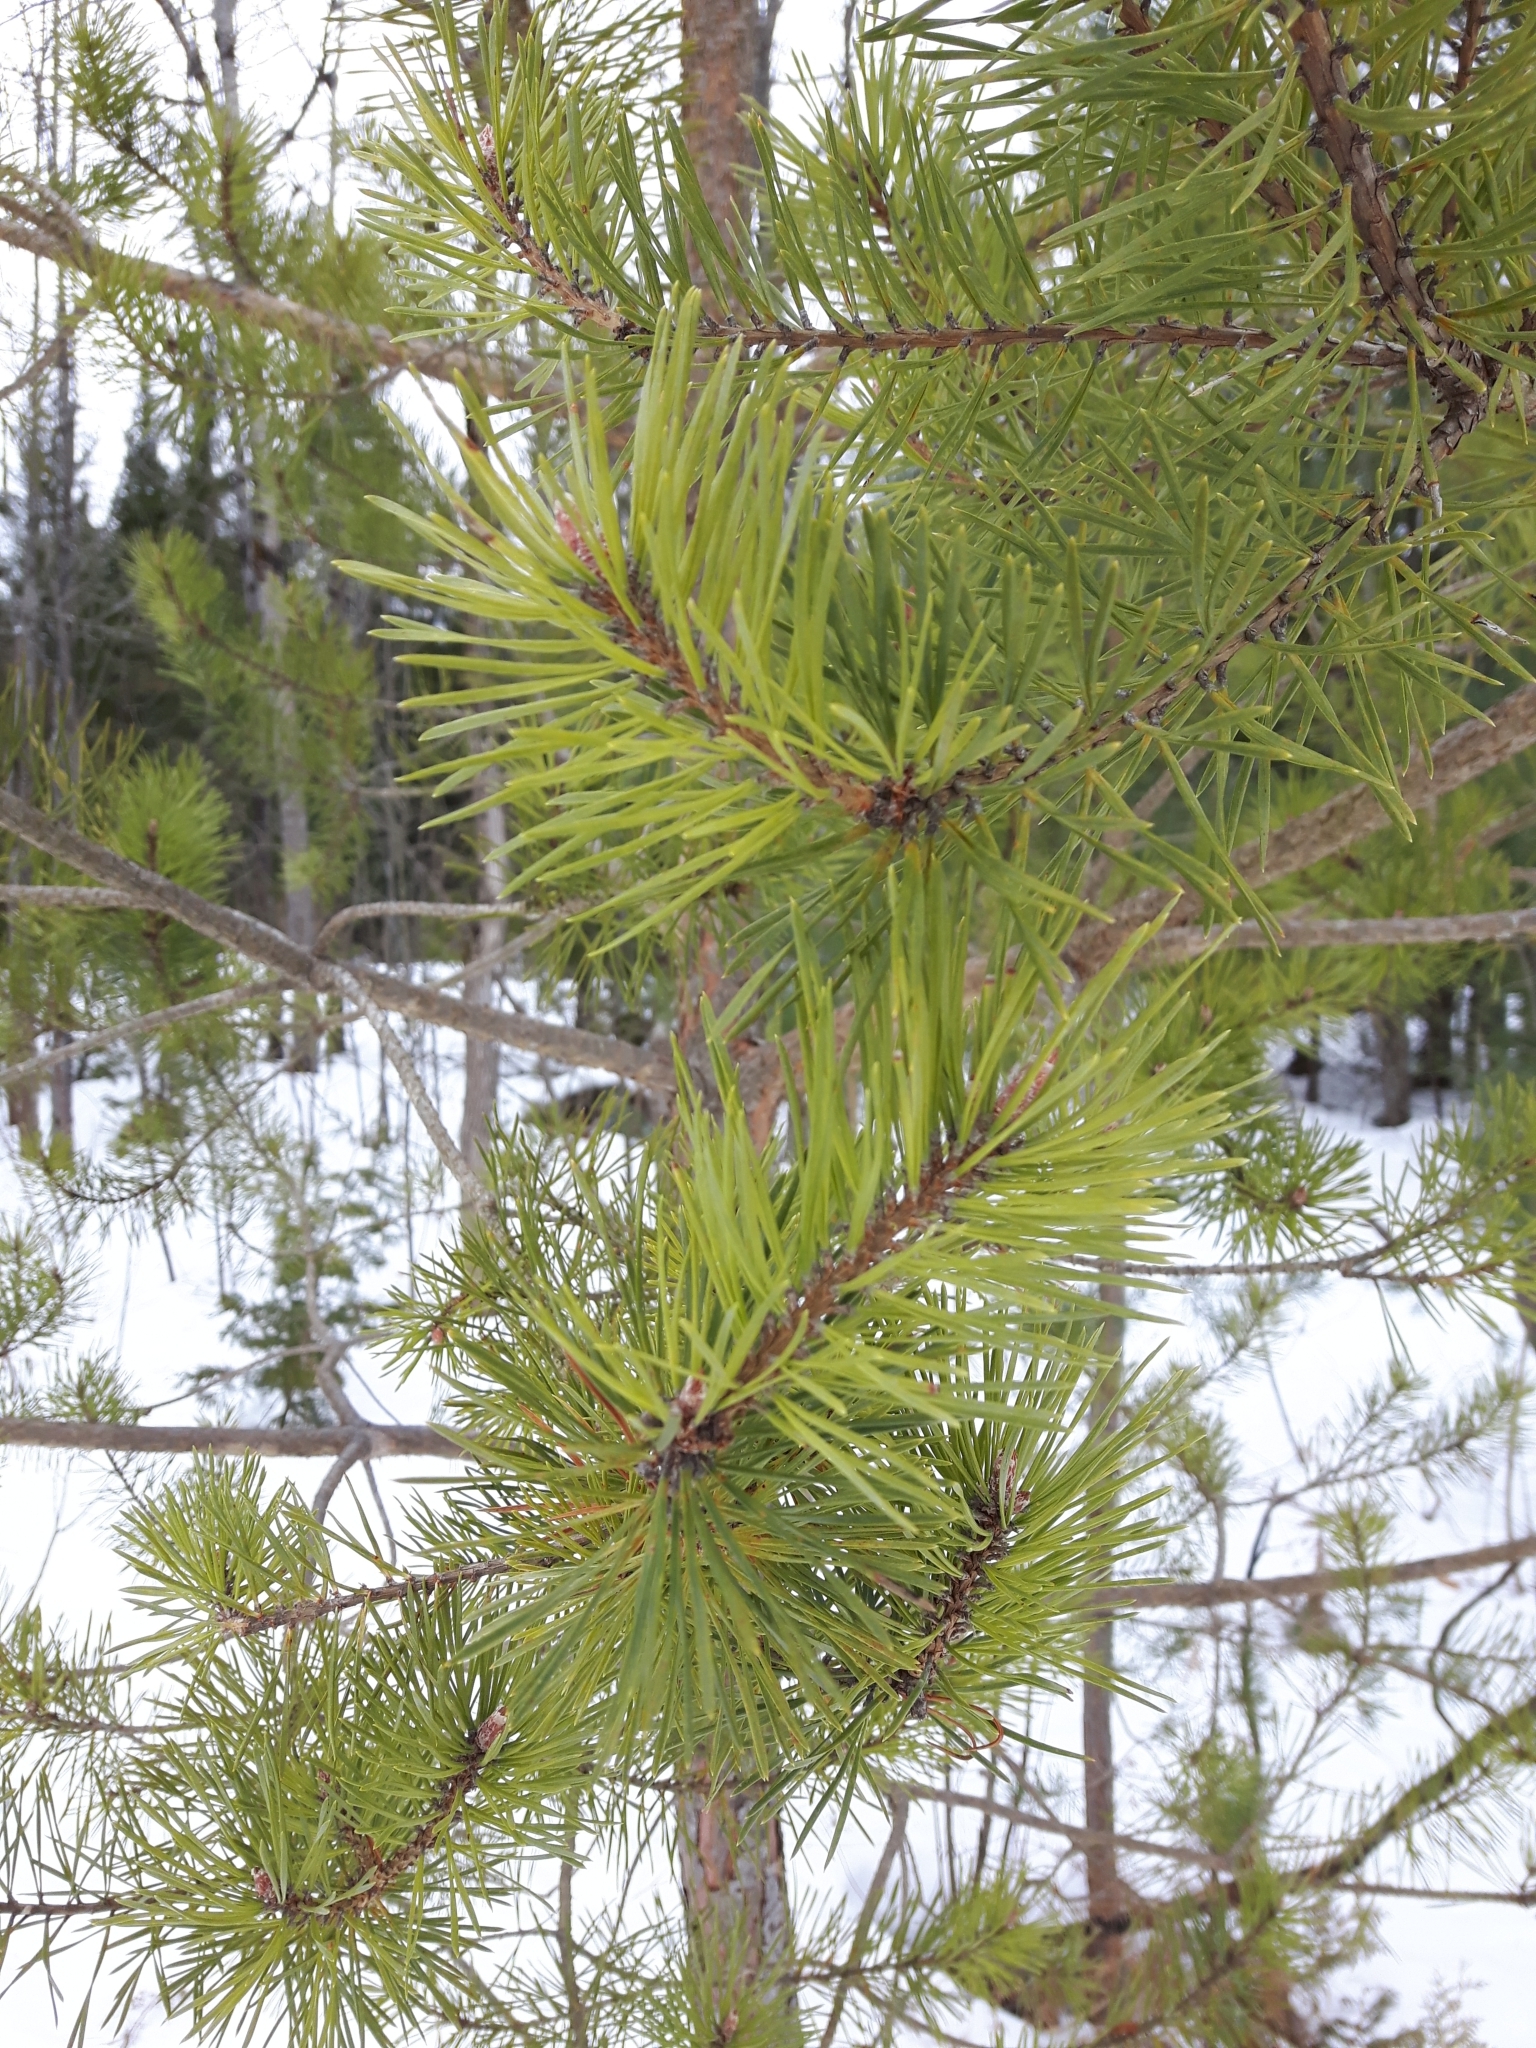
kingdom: Plantae
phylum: Tracheophyta
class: Pinopsida
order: Pinales
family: Pinaceae
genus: Pinus
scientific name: Pinus banksiana
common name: Jack pine
